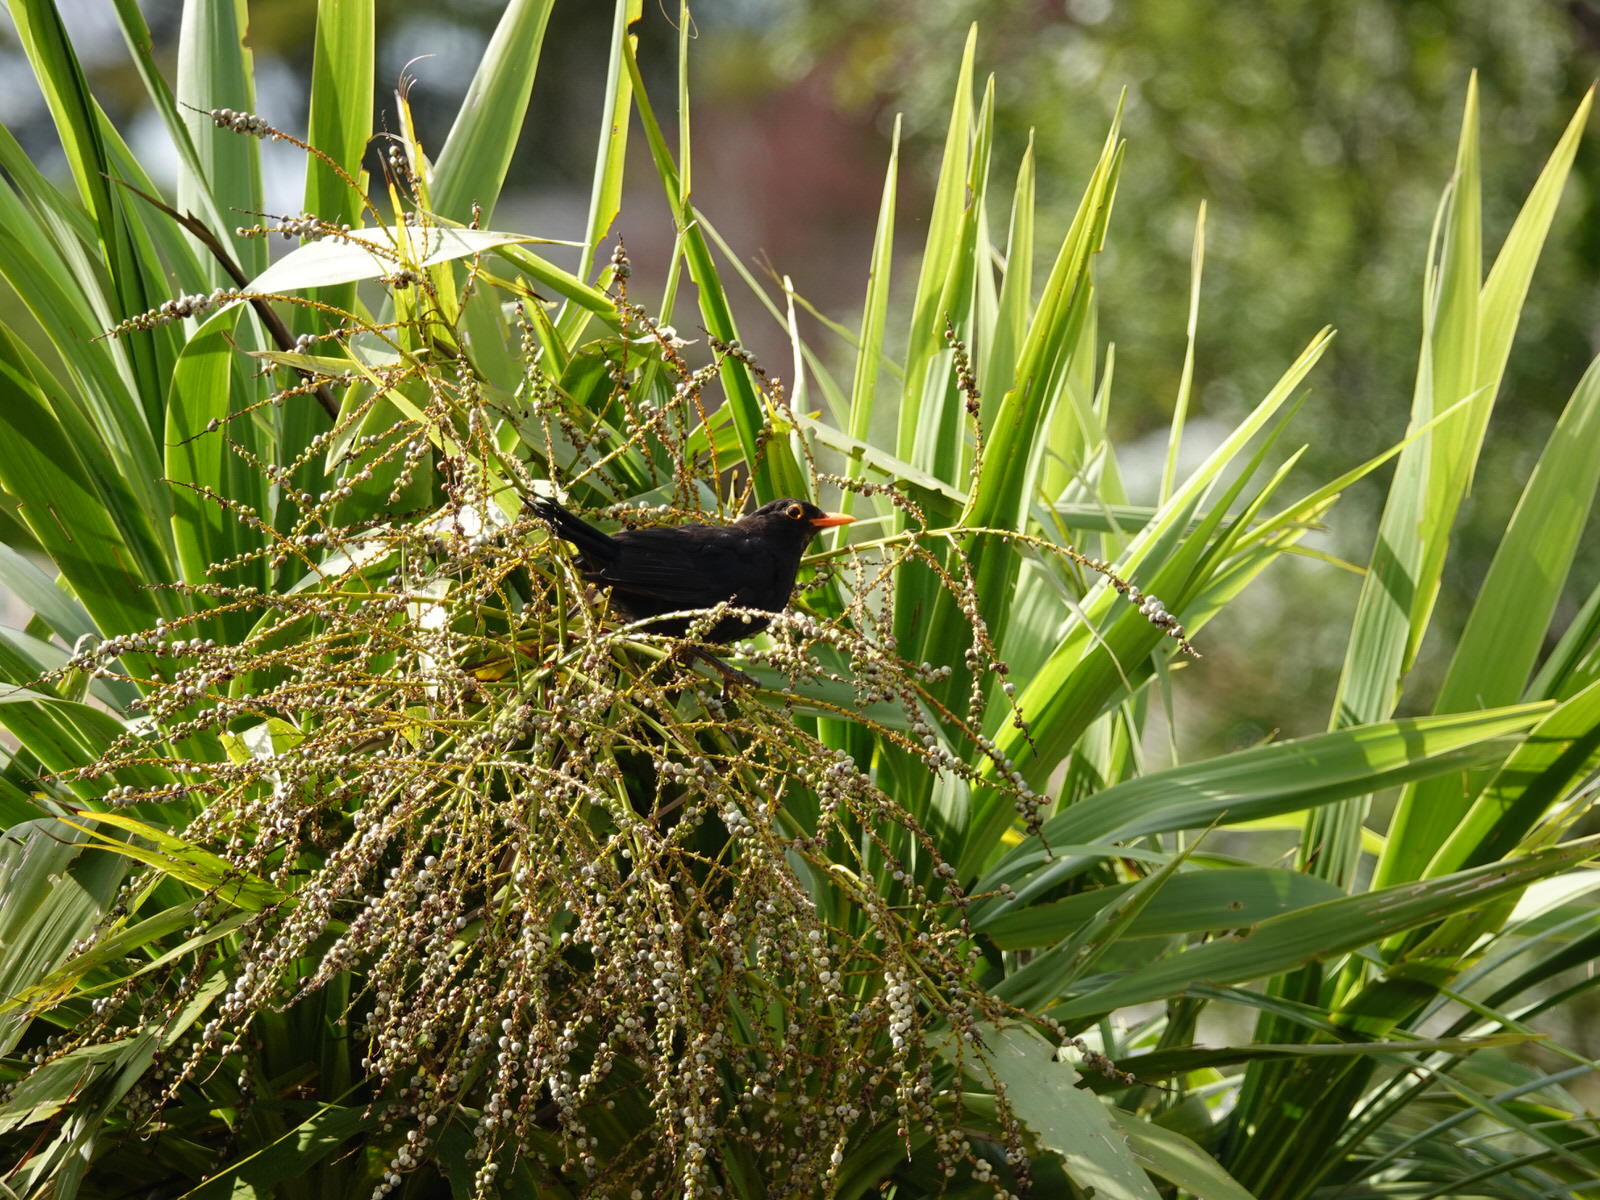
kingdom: Animalia
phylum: Chordata
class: Aves
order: Passeriformes
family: Turdidae
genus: Turdus
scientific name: Turdus merula
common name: Common blackbird
